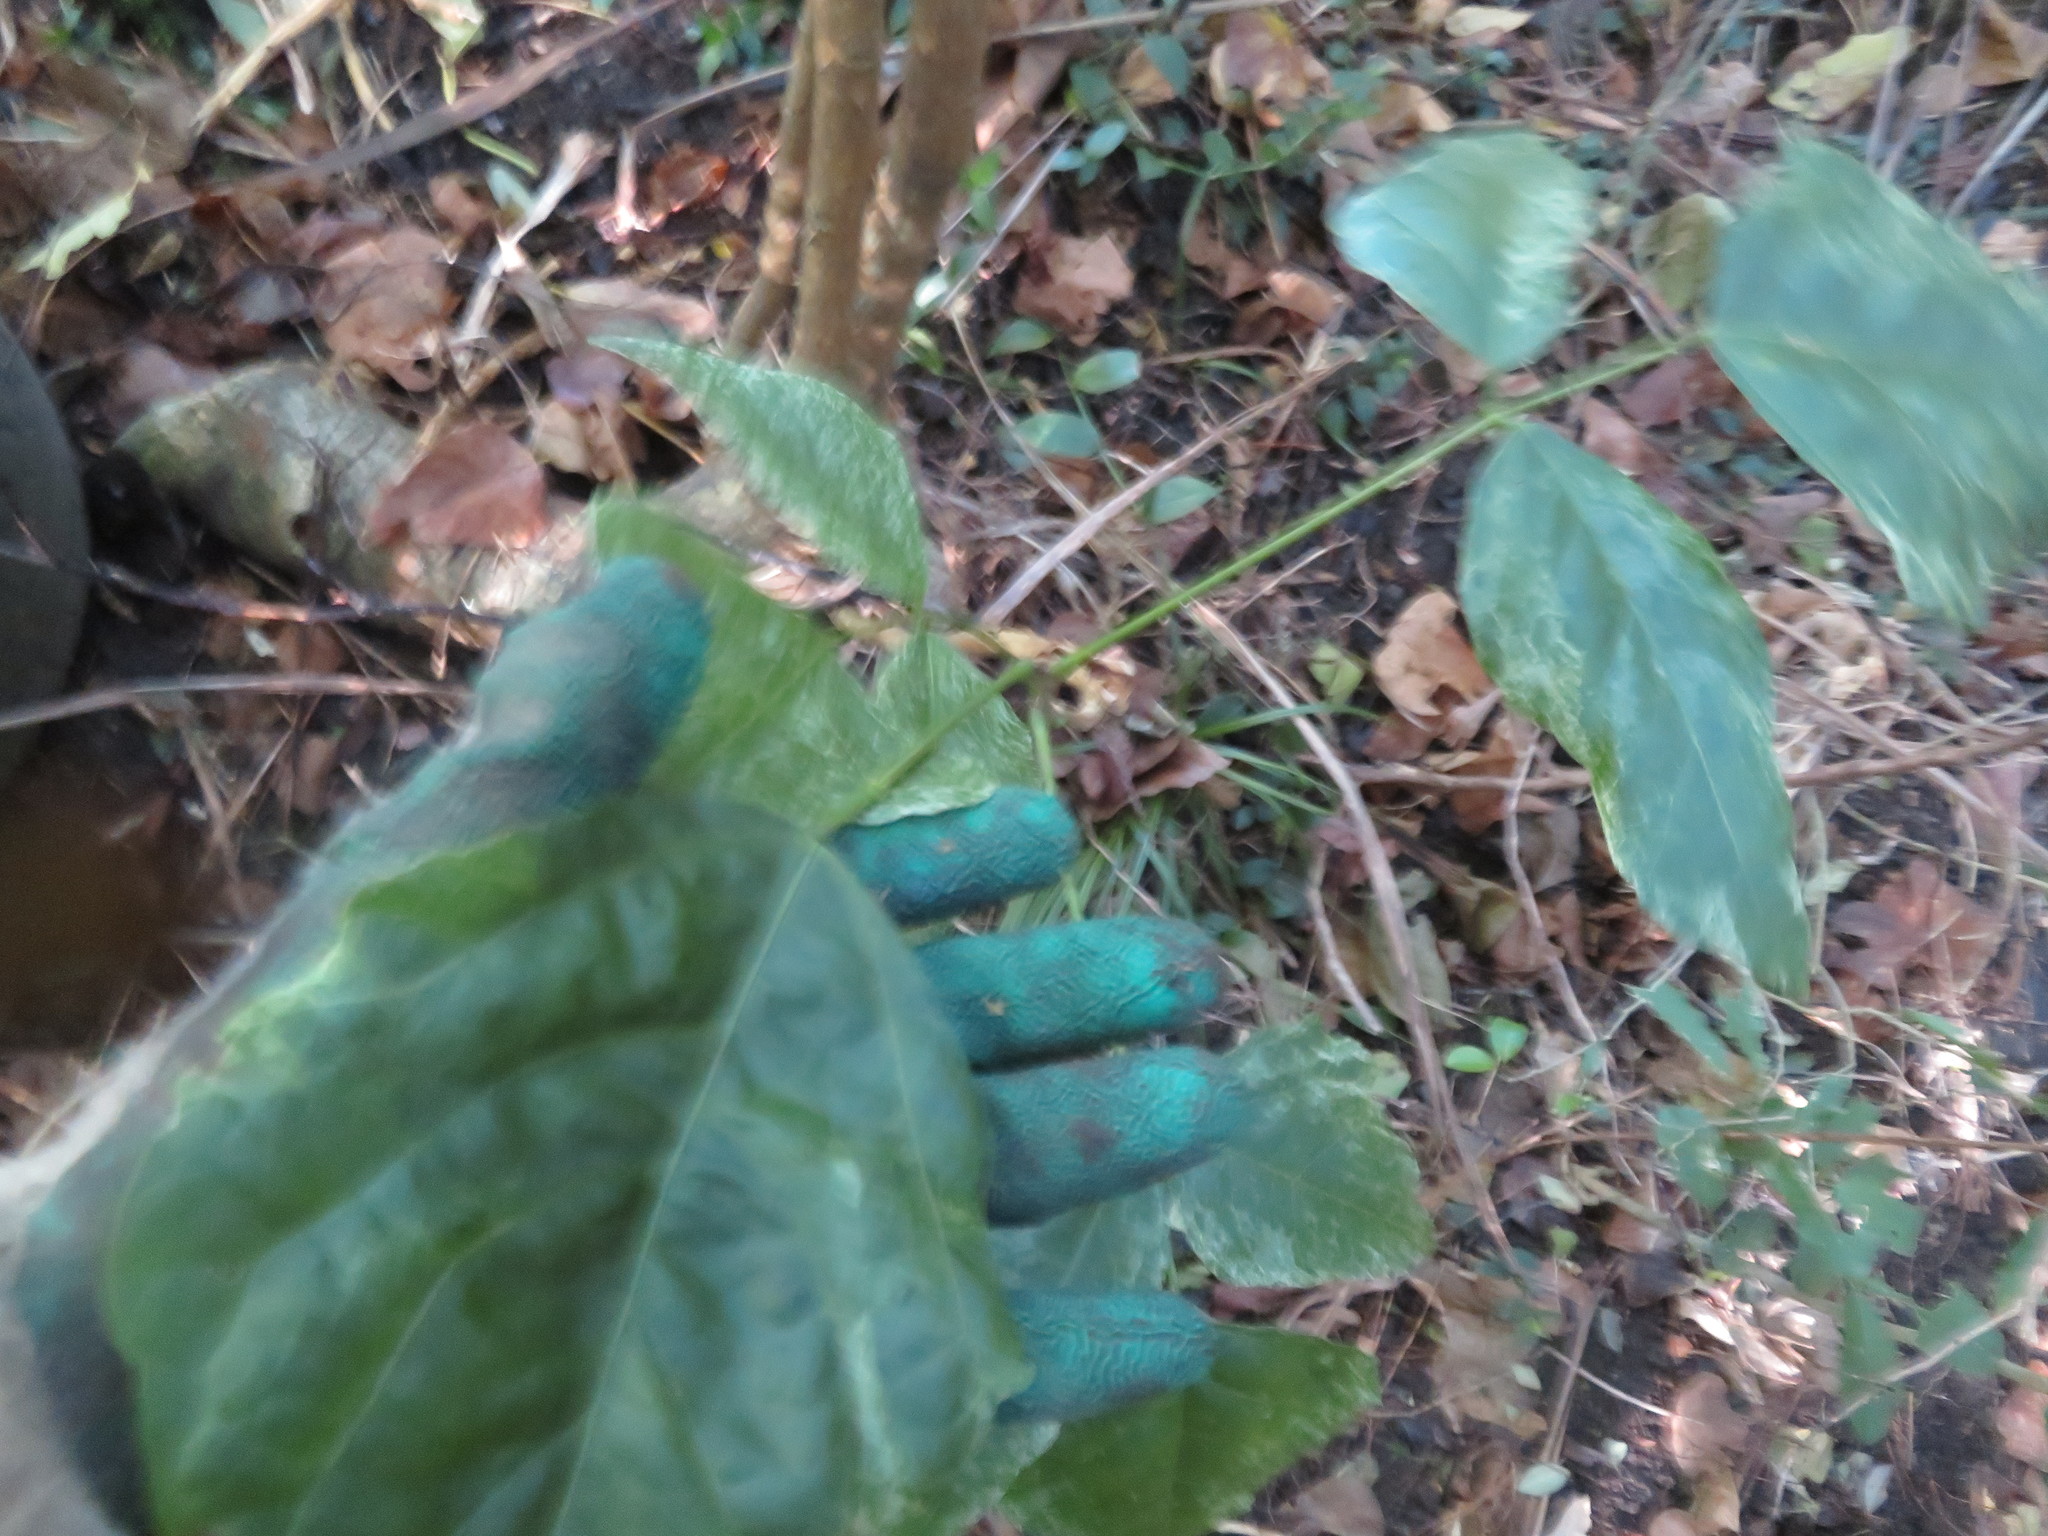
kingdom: Plantae
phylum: Tracheophyta
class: Magnoliopsida
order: Fabales
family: Fabaceae
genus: Erythrina
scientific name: Erythrina sykesii
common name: Coraltree
